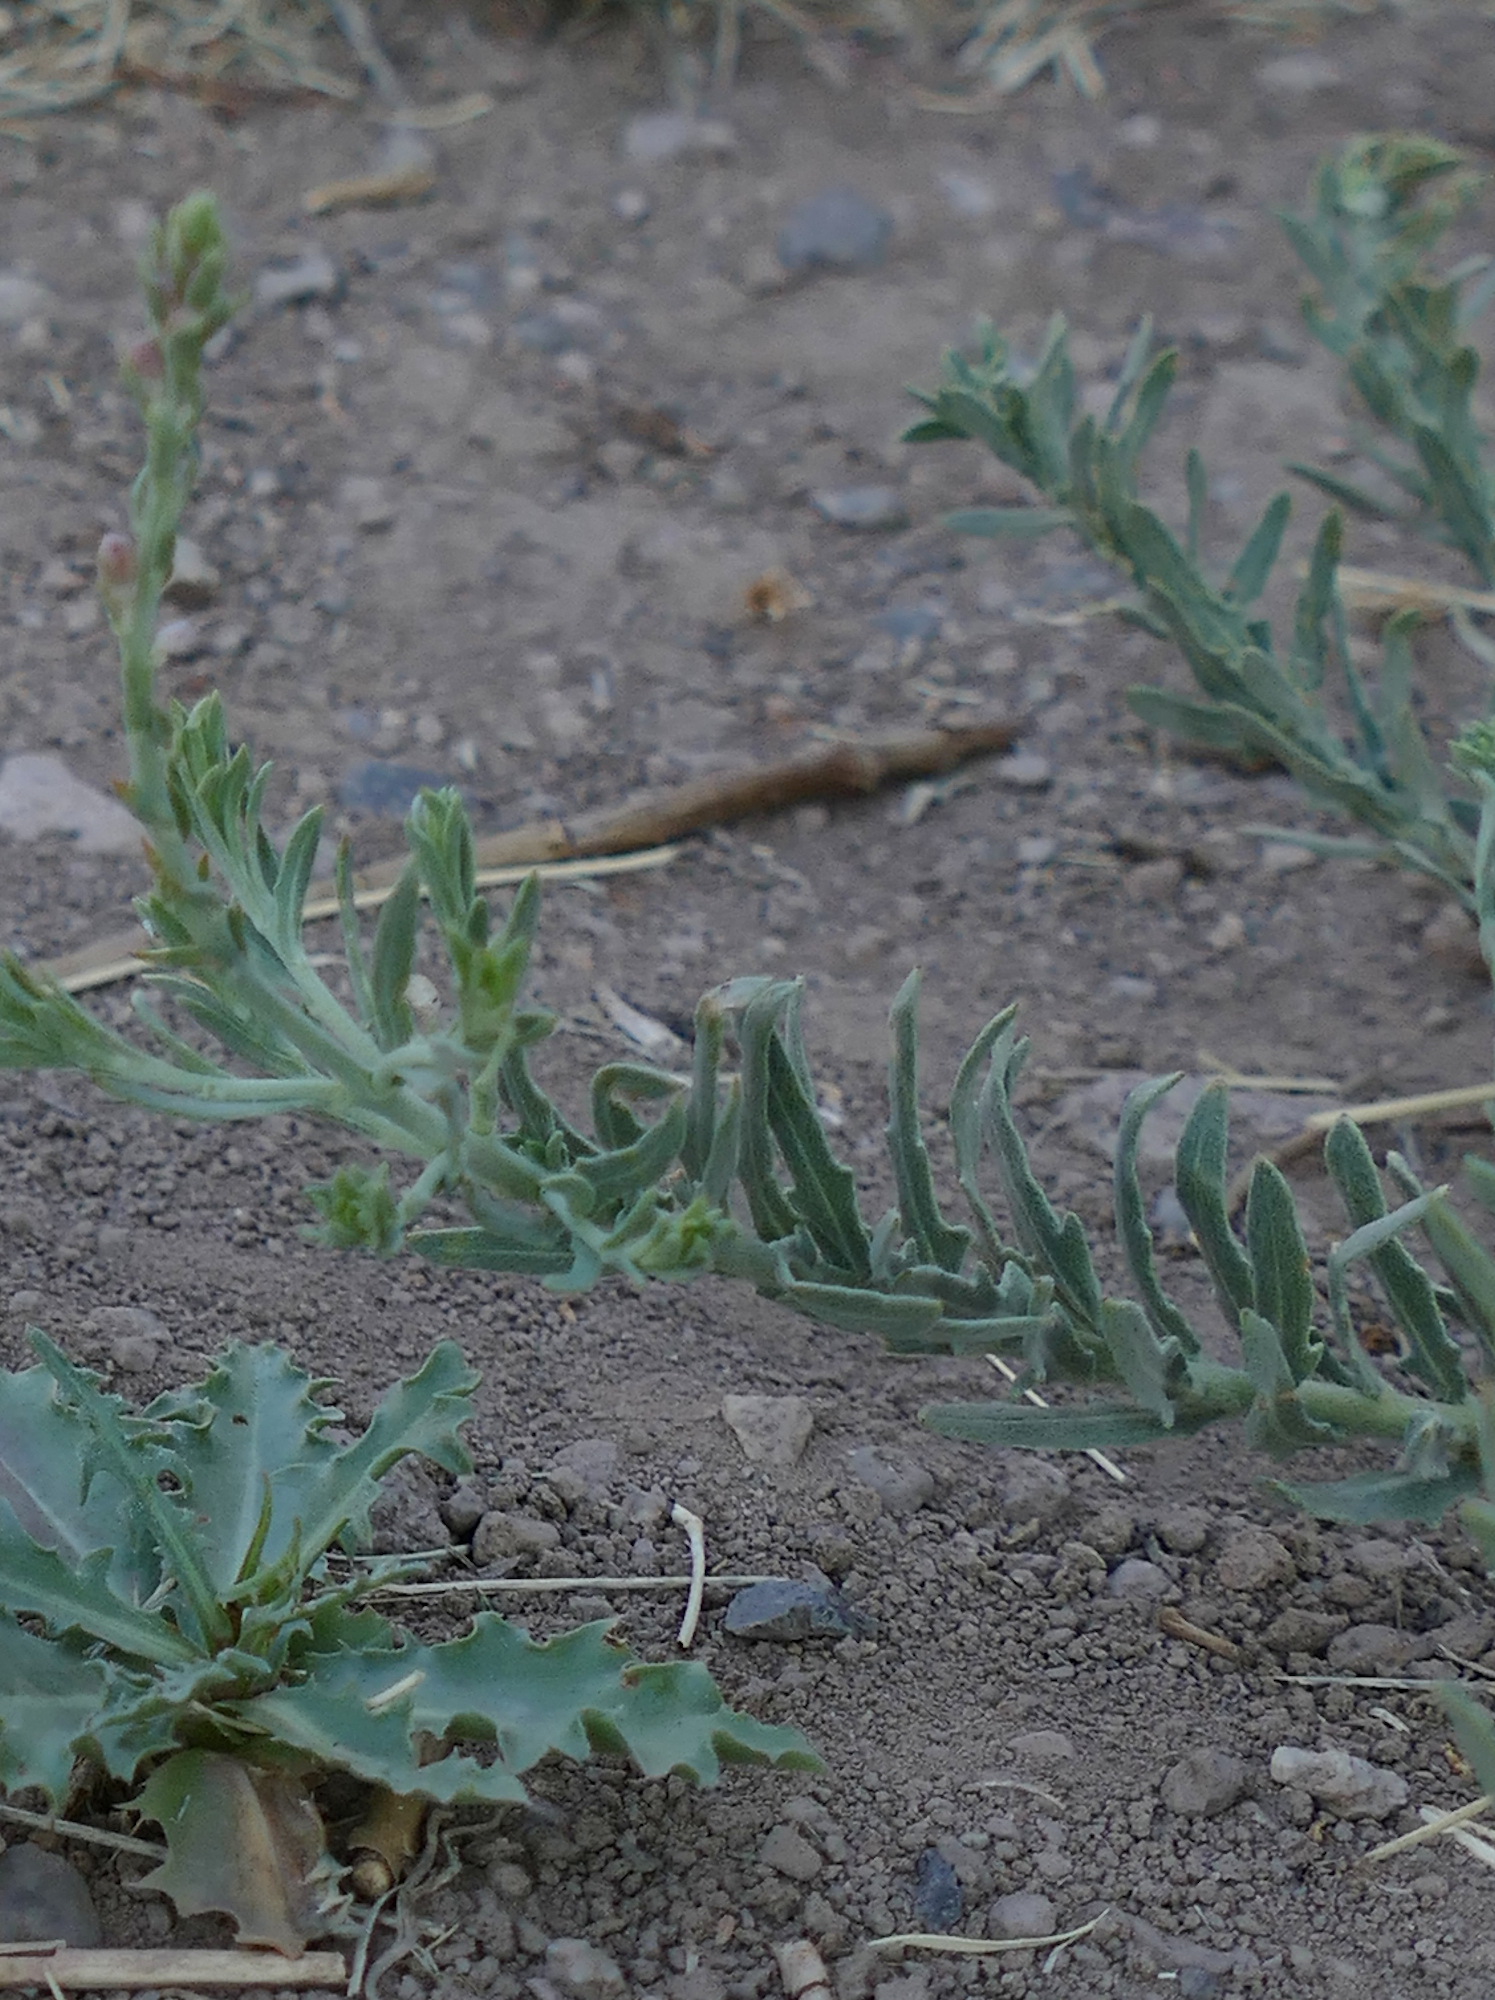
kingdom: Plantae
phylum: Tracheophyta
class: Magnoliopsida
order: Myrtales
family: Onagraceae
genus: Oenothera
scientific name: Oenothera suffrutescens
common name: Scarlet beeblossom
